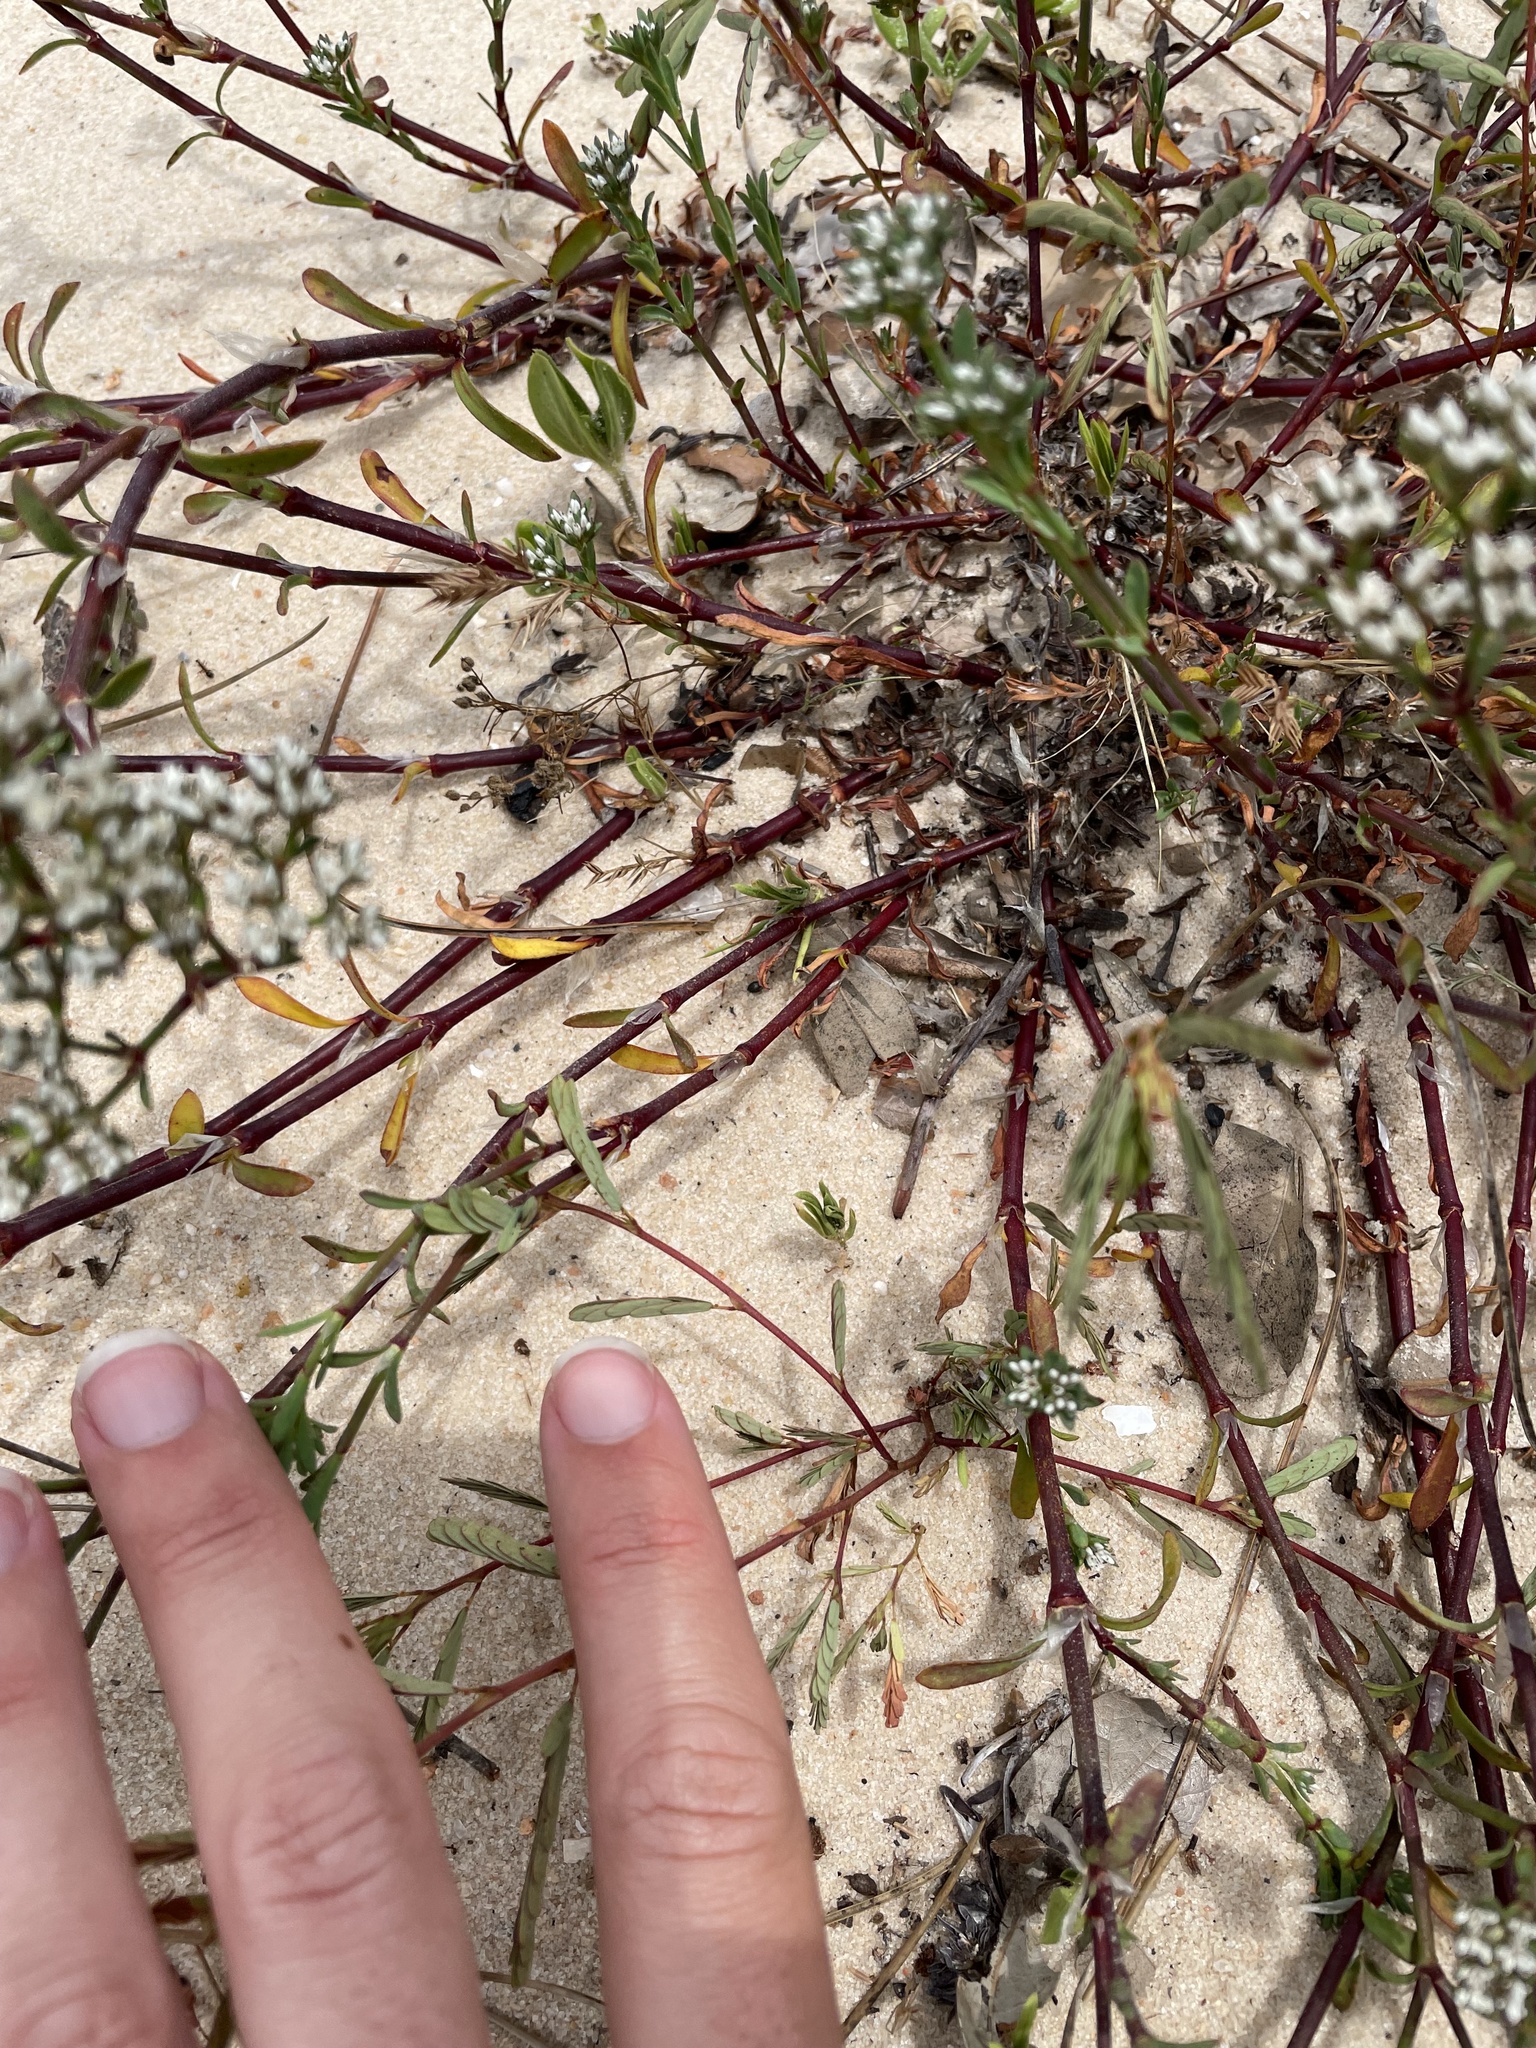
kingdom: Plantae
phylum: Tracheophyta
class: Magnoliopsida
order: Caryophyllales
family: Caryophyllaceae
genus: Paronychia
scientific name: Paronychia erecta
